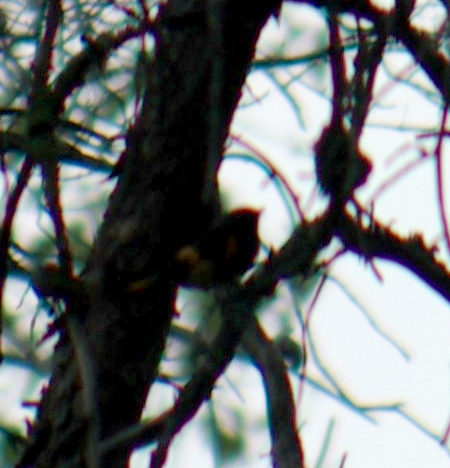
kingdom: Animalia
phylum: Chordata
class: Aves
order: Passeriformes
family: Parulidae
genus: Setophaga
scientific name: Setophaga ruticilla
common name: American redstart
